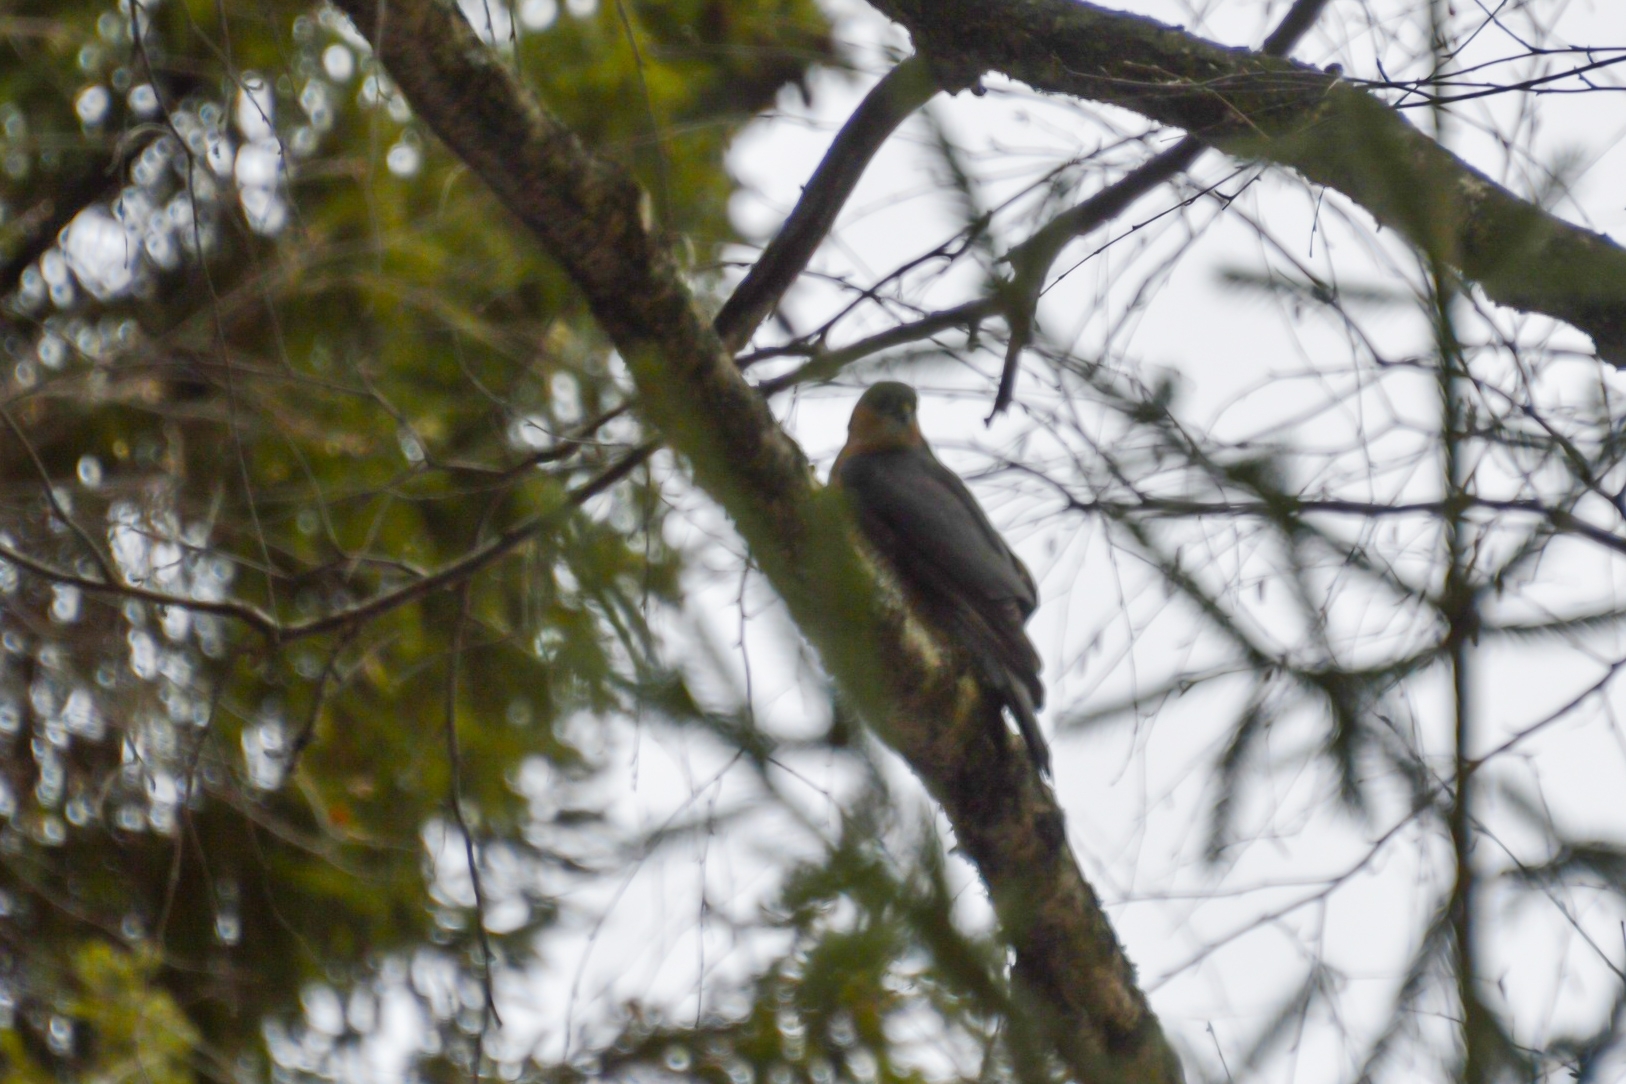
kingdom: Animalia
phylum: Chordata
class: Aves
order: Accipitriformes
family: Accipitridae
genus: Accipiter
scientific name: Accipiter nisus
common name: Eurasian sparrowhawk
